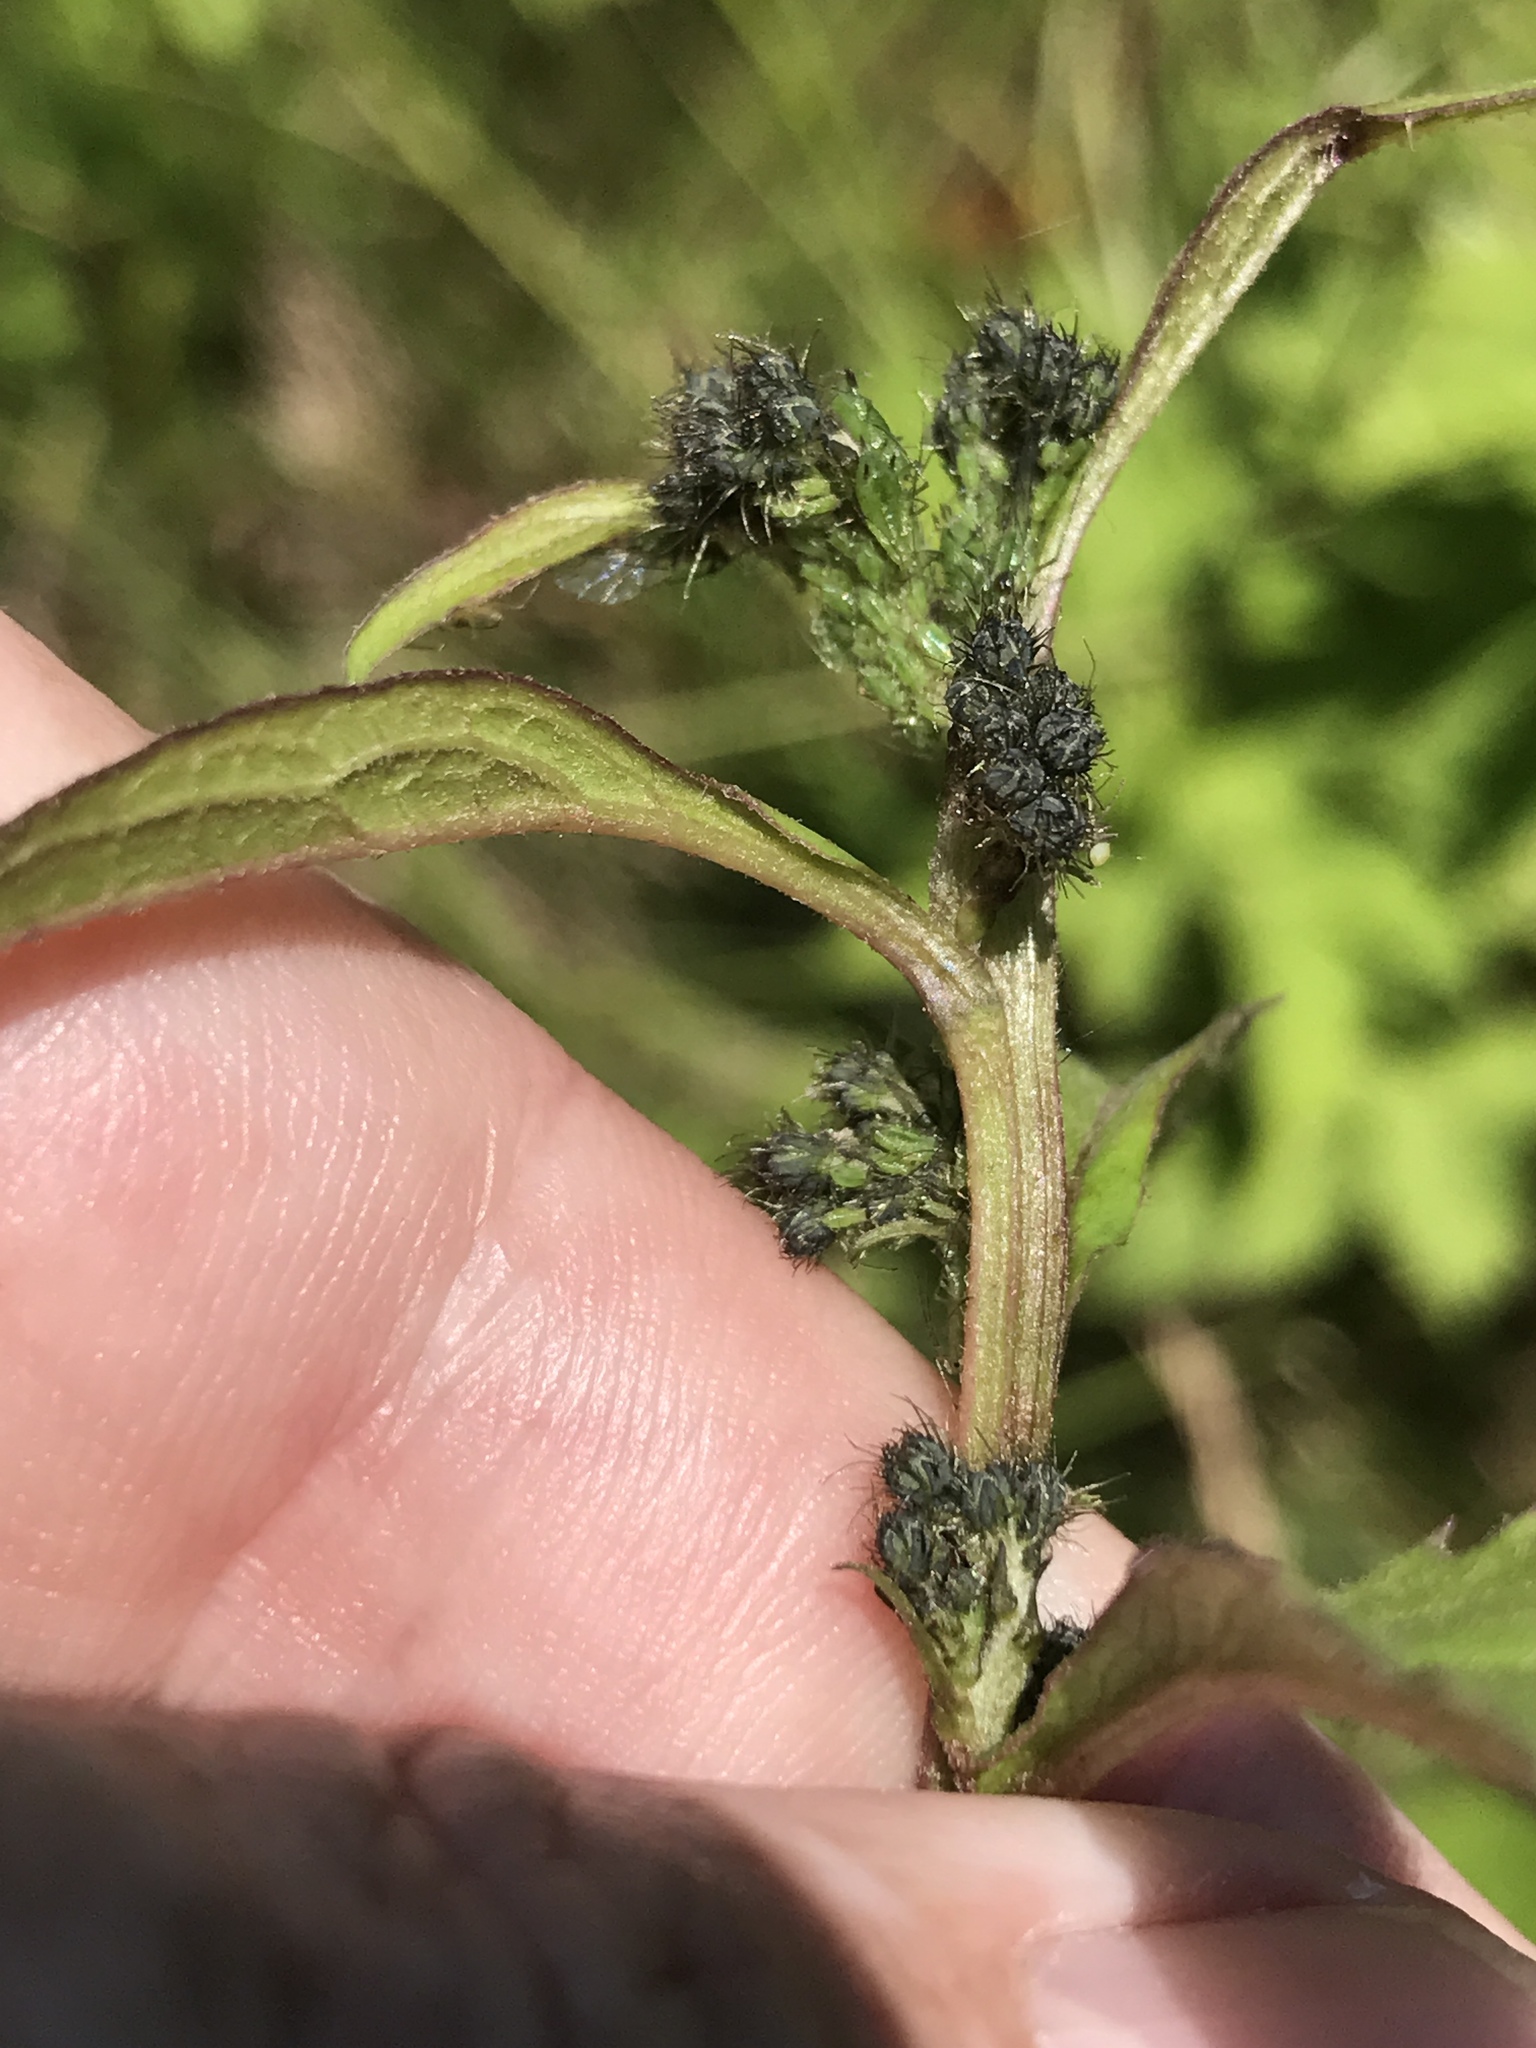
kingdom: Plantae
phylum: Tracheophyta
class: Magnoliopsida
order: Asterales
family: Asteraceae
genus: Nabalus
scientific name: Nabalus roanensis
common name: Roan mountain rattlesnakeroot
